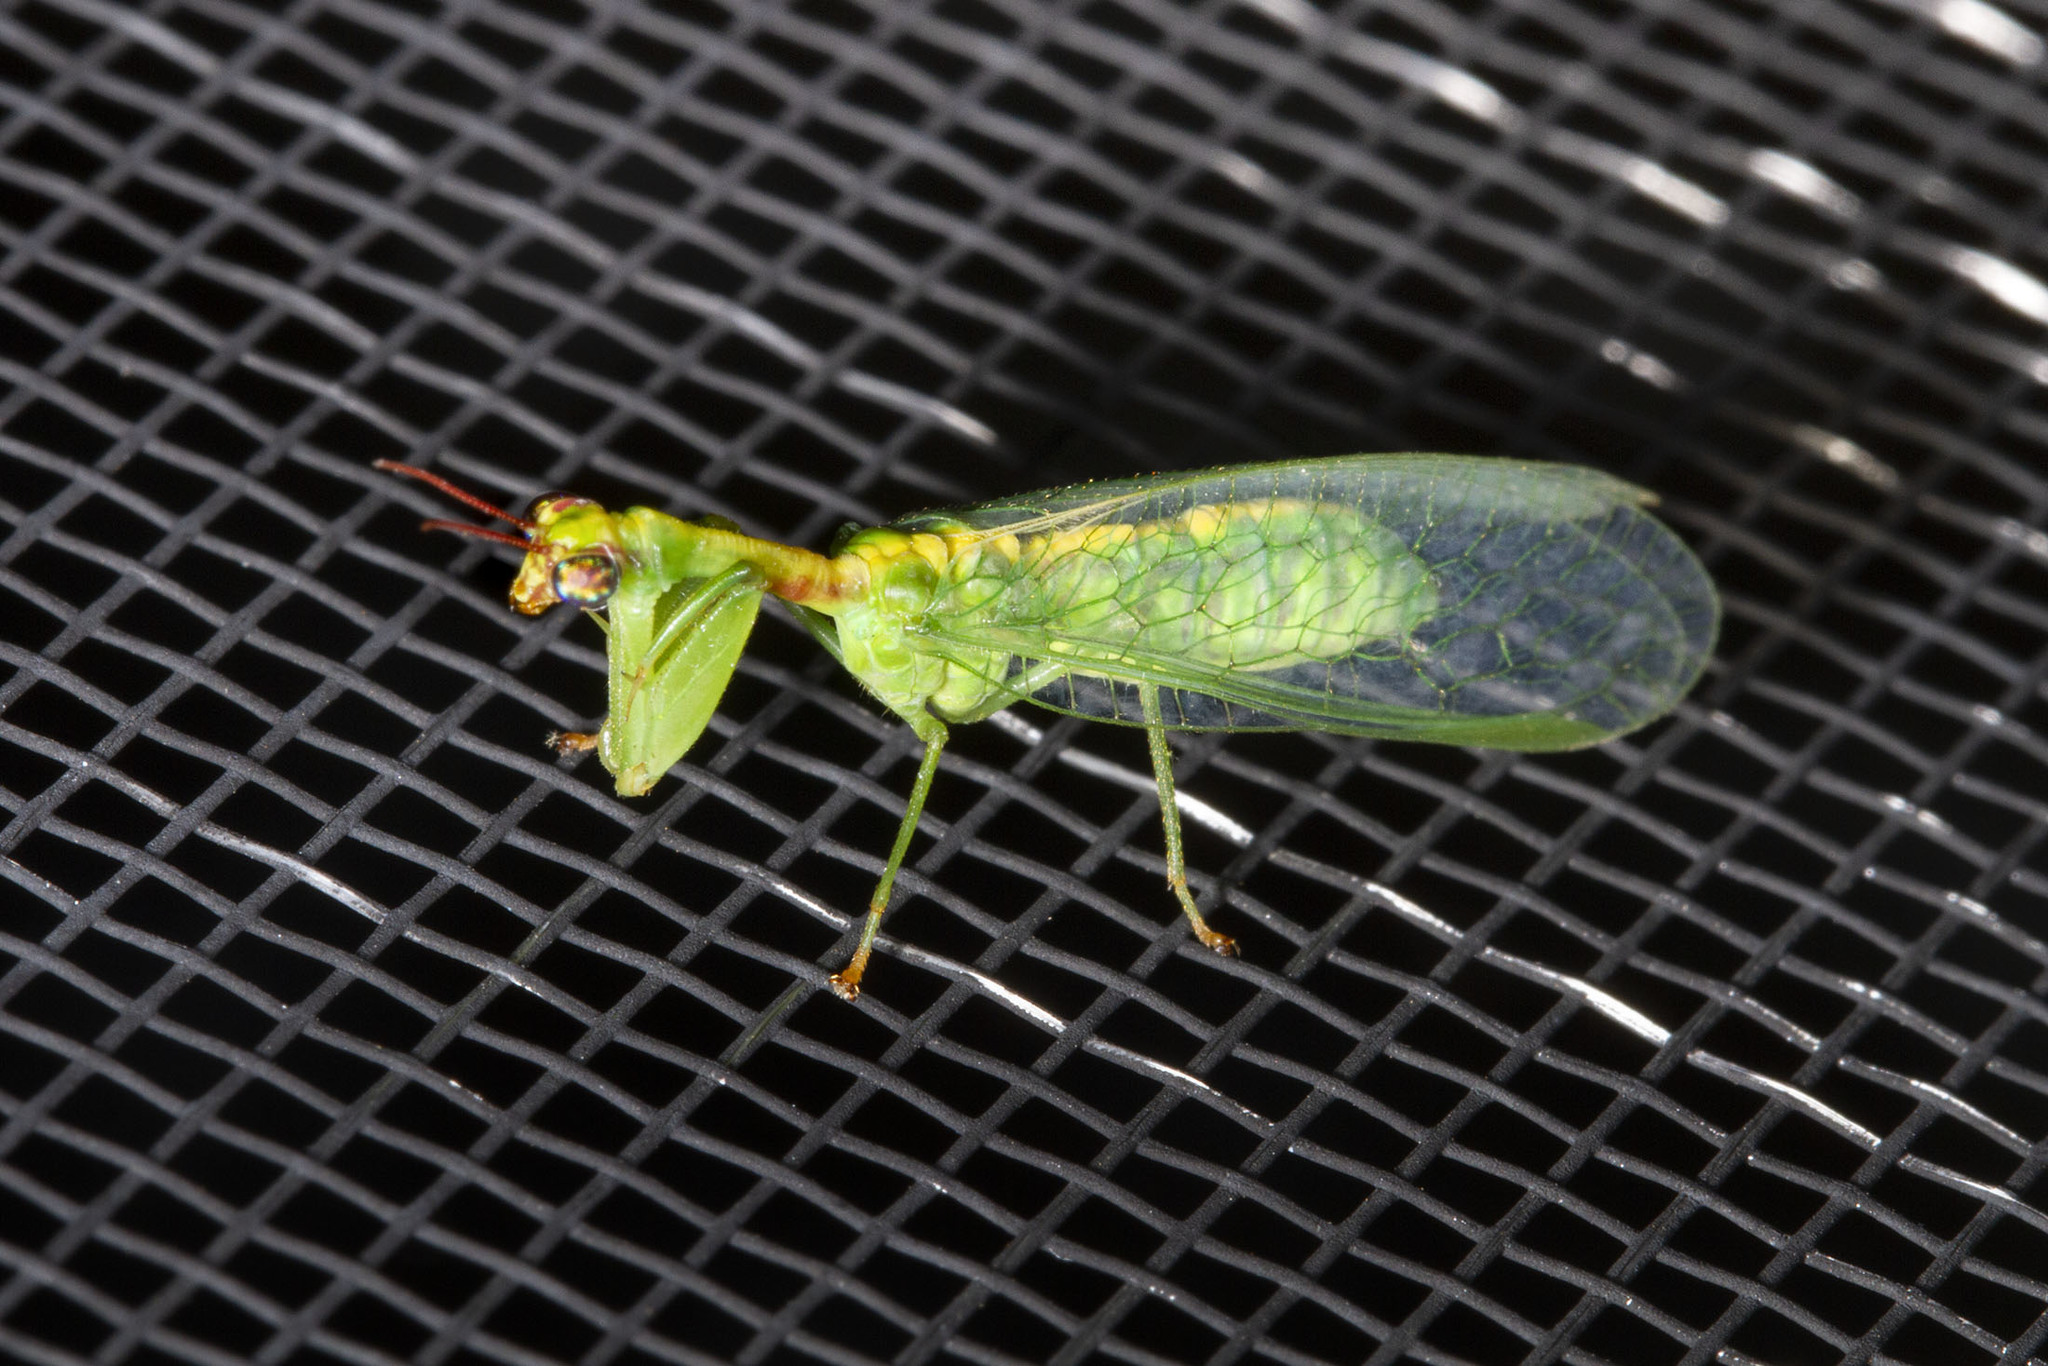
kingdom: Animalia
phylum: Arthropoda
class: Insecta
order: Neuroptera
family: Mantispidae
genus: Zeugomantispa
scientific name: Zeugomantispa minuta
